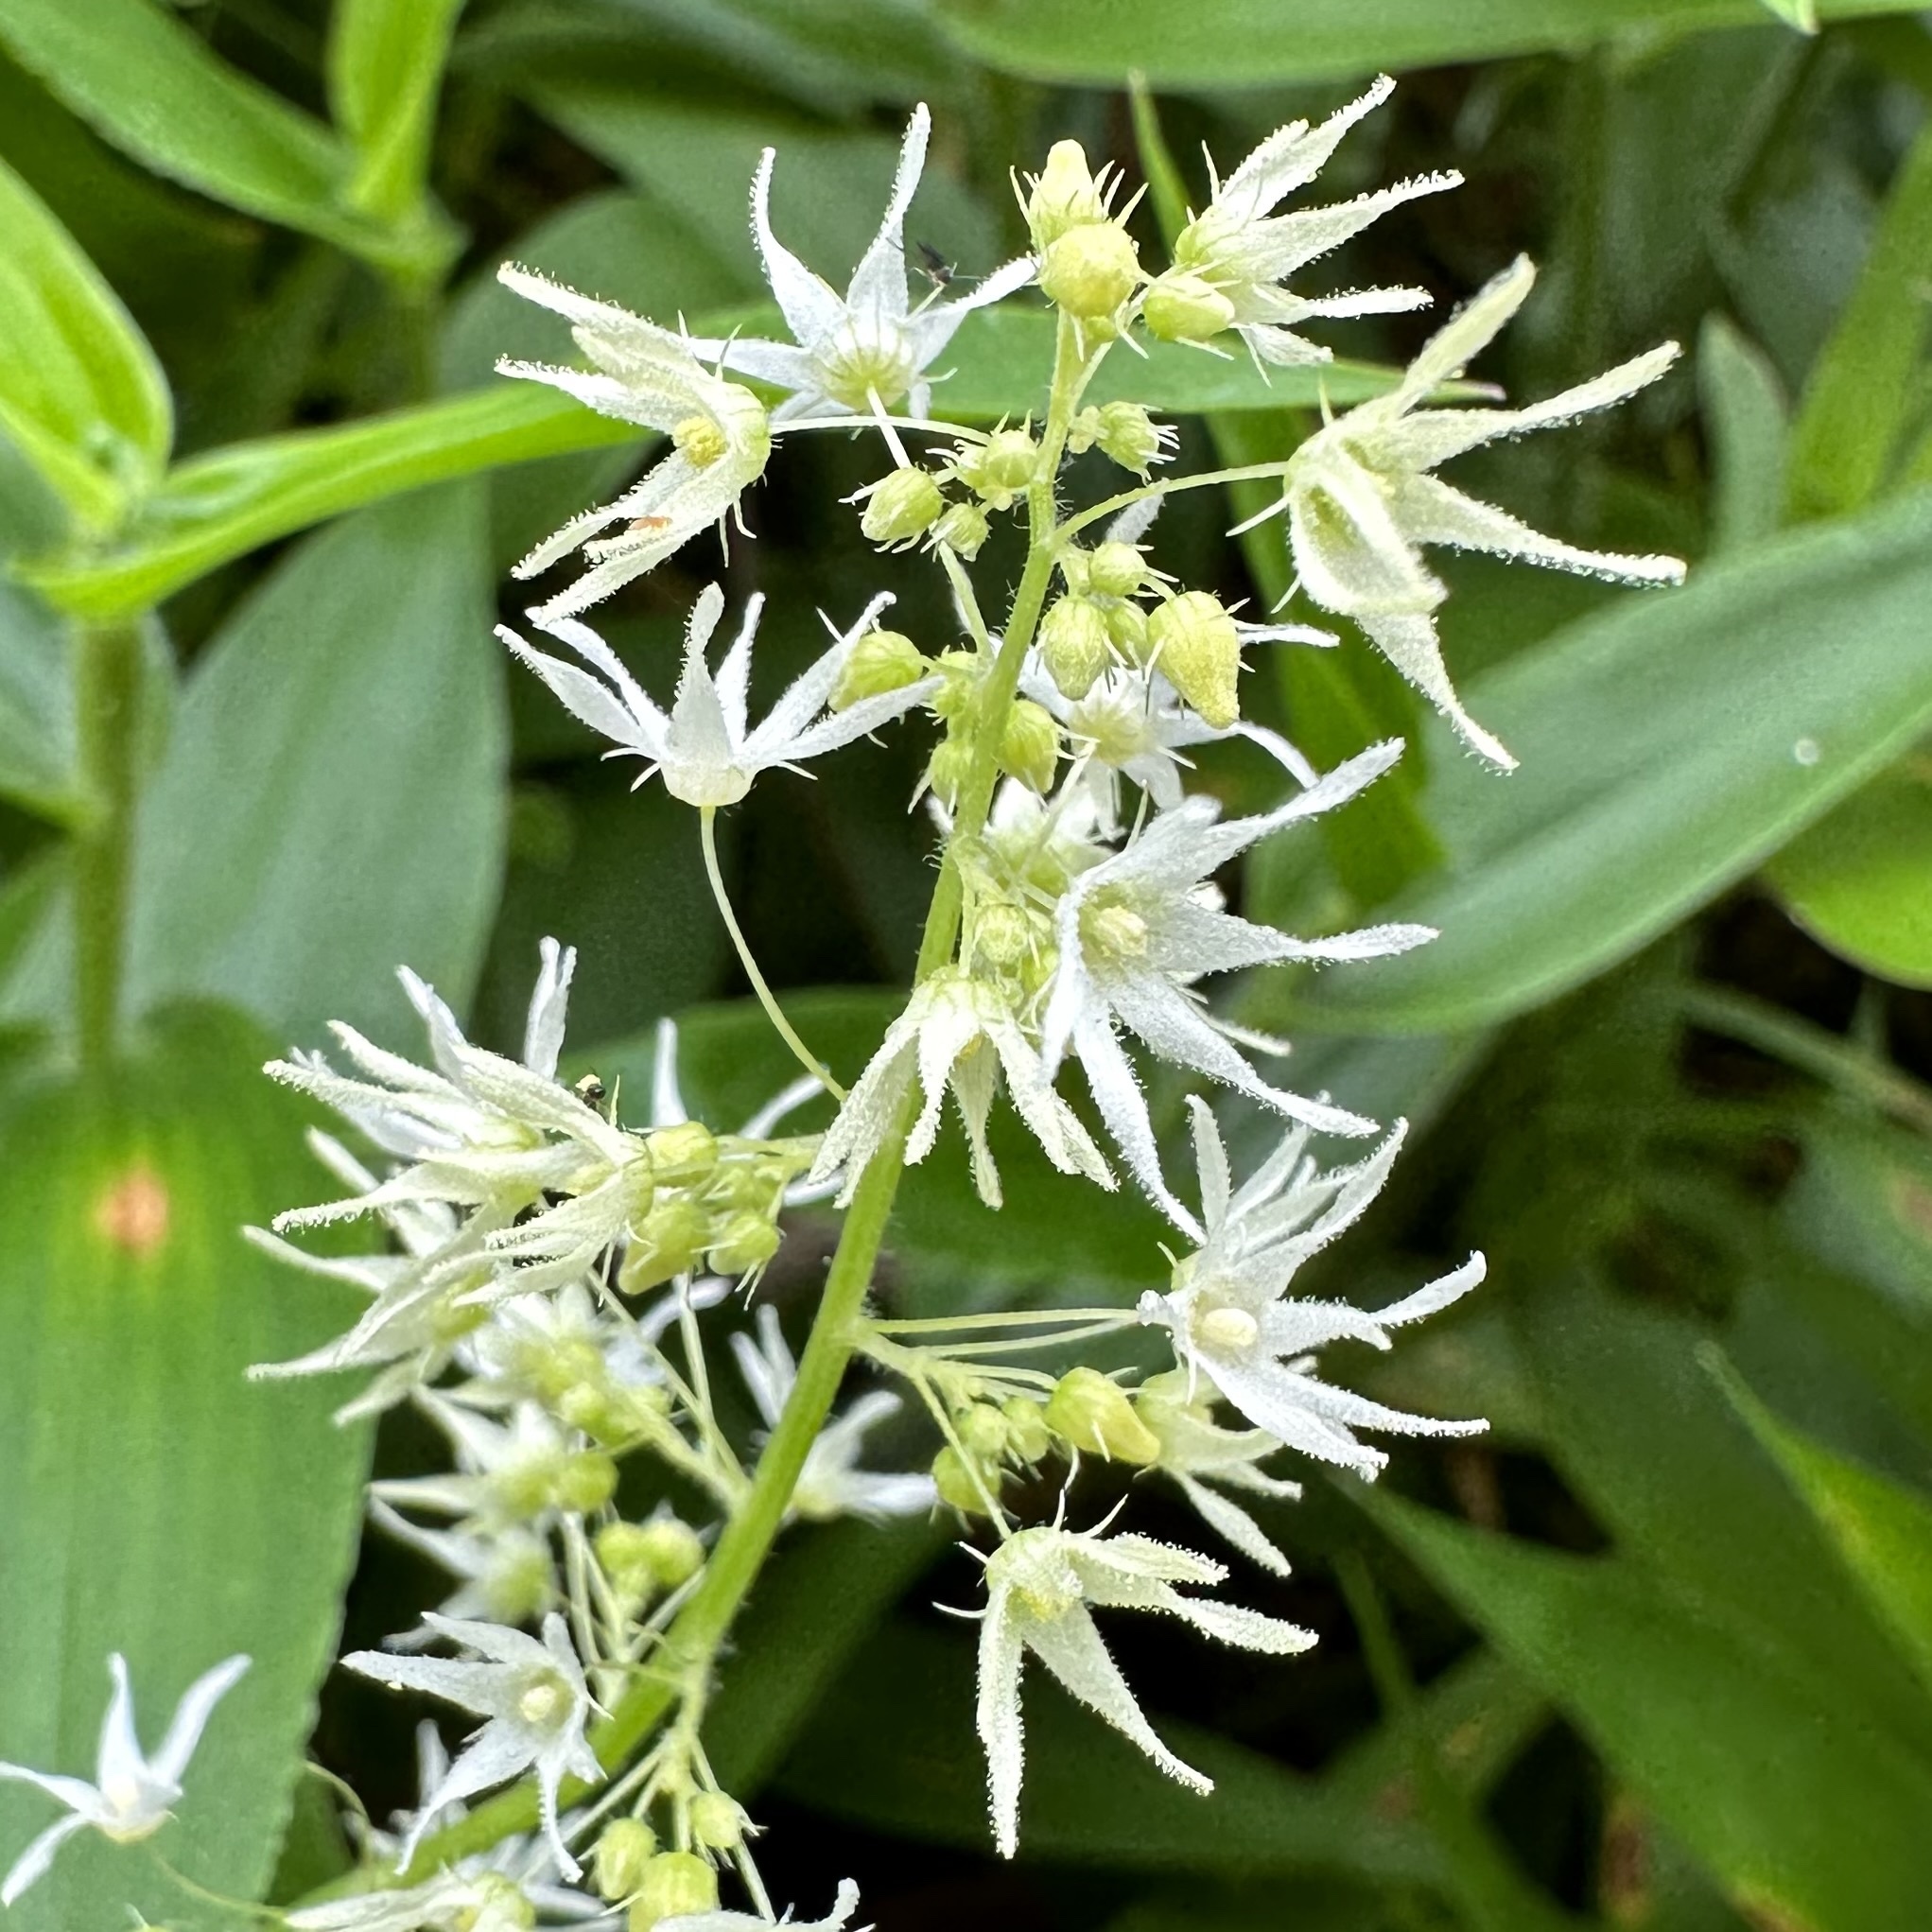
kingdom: Plantae
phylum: Tracheophyta
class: Magnoliopsida
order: Cucurbitales
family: Cucurbitaceae
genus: Echinocystis
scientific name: Echinocystis lobata
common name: Wild cucumber
